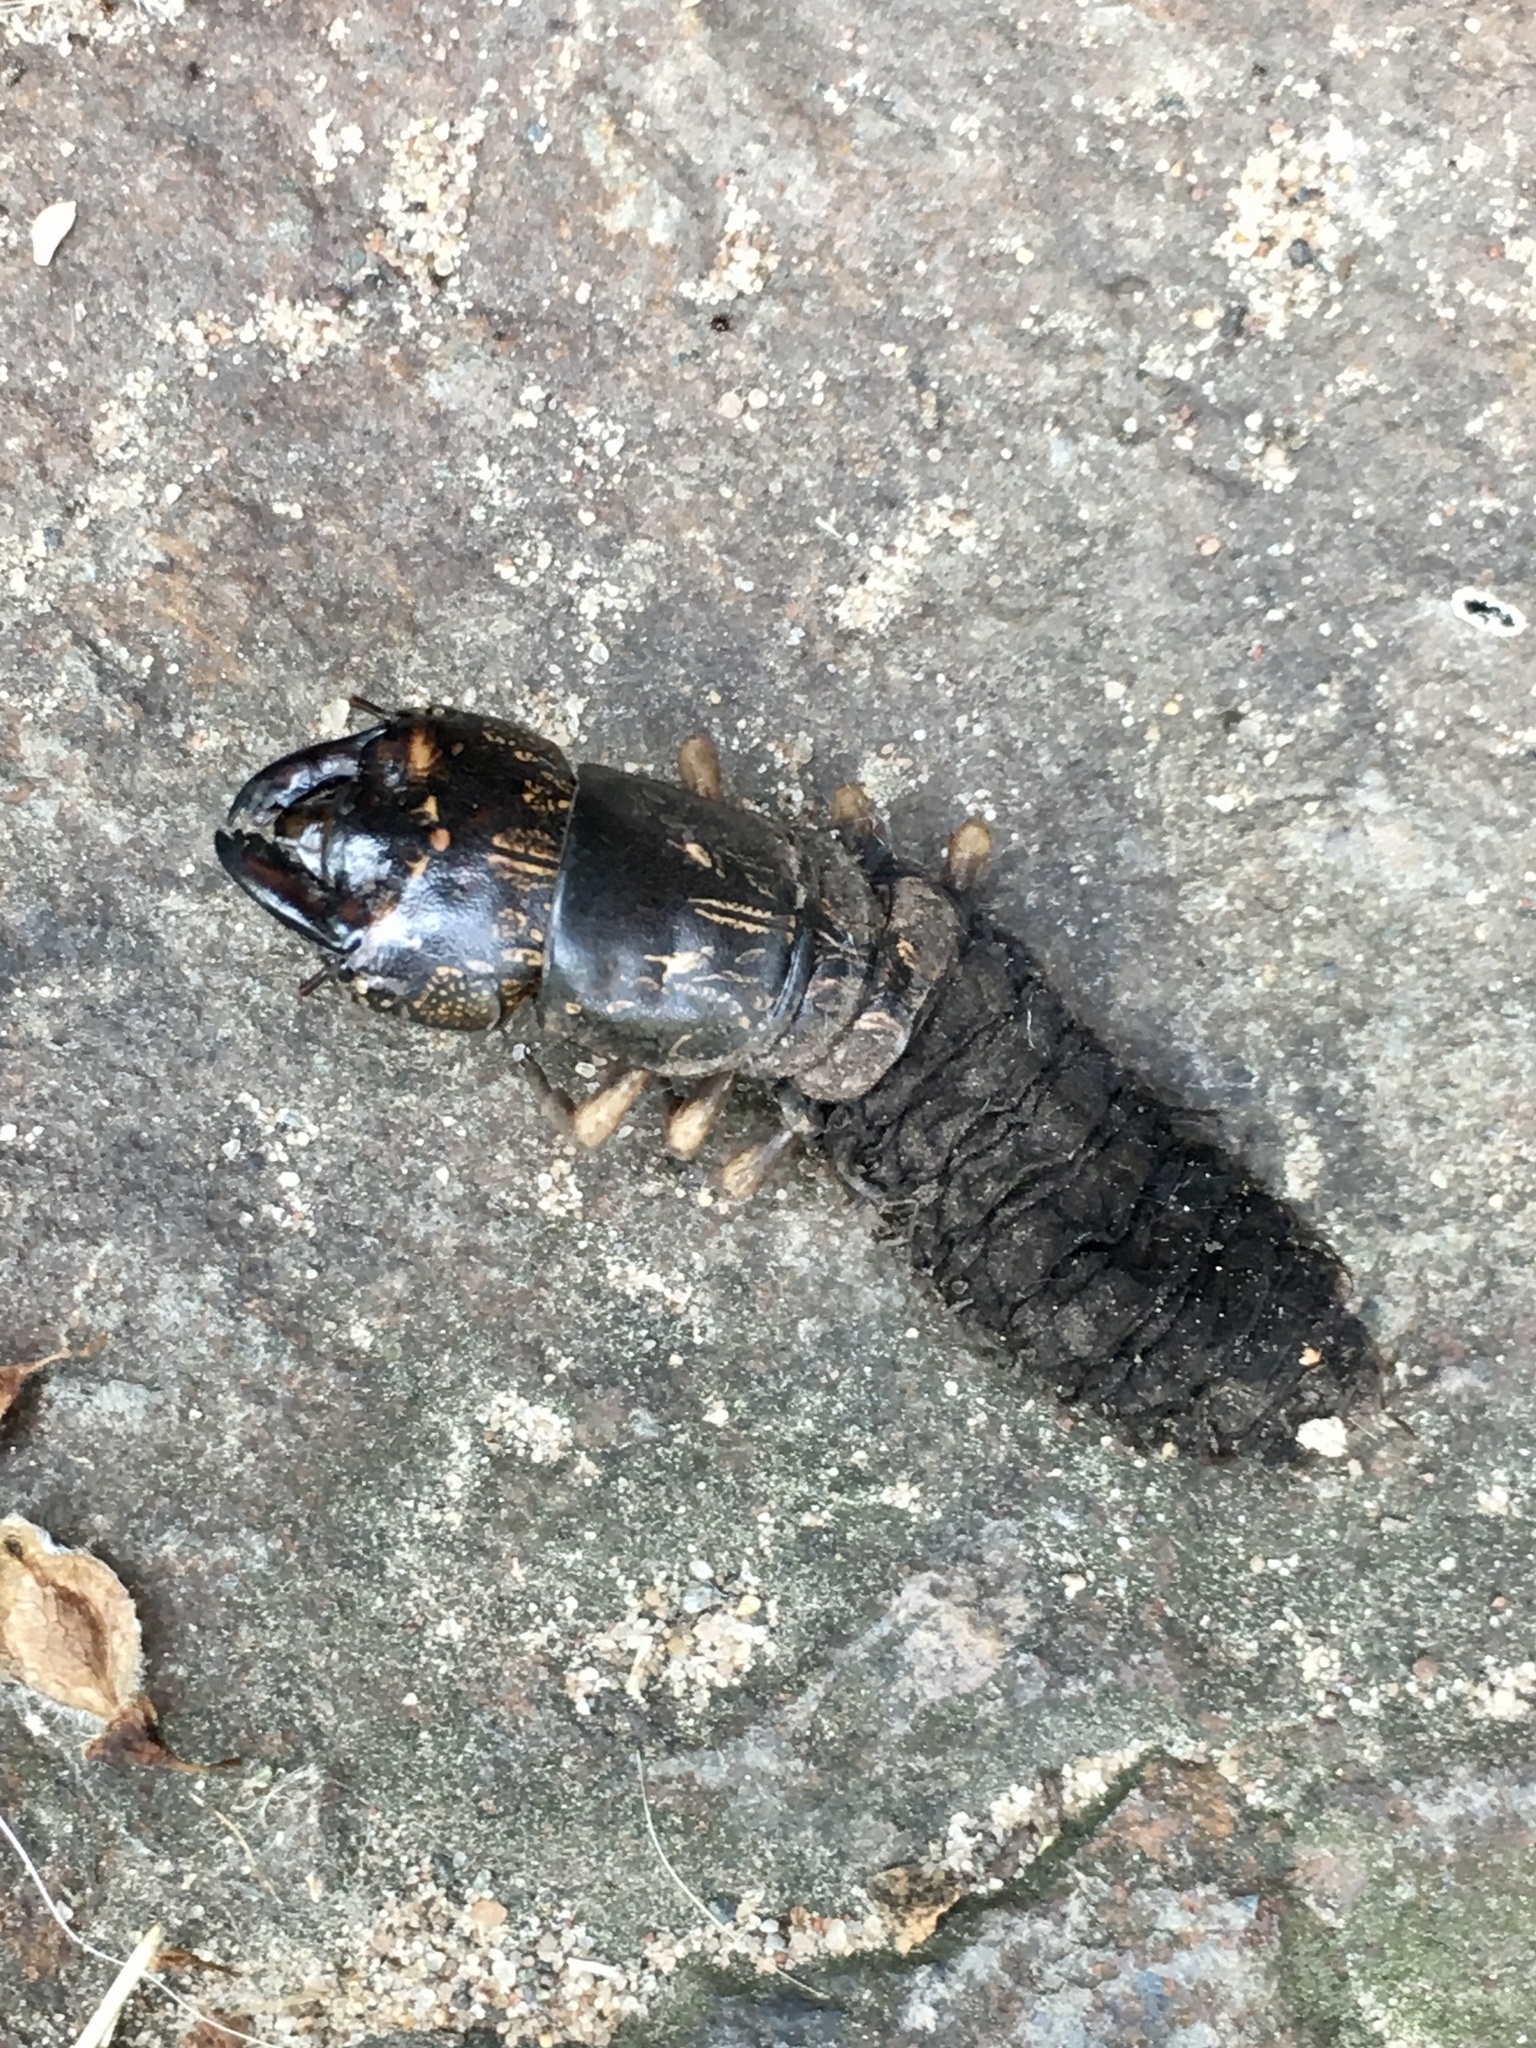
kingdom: Animalia
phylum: Arthropoda
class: Insecta
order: Megaloptera
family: Corydalidae
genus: Corydalus
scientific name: Corydalus cornutus
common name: Dobsonfly
